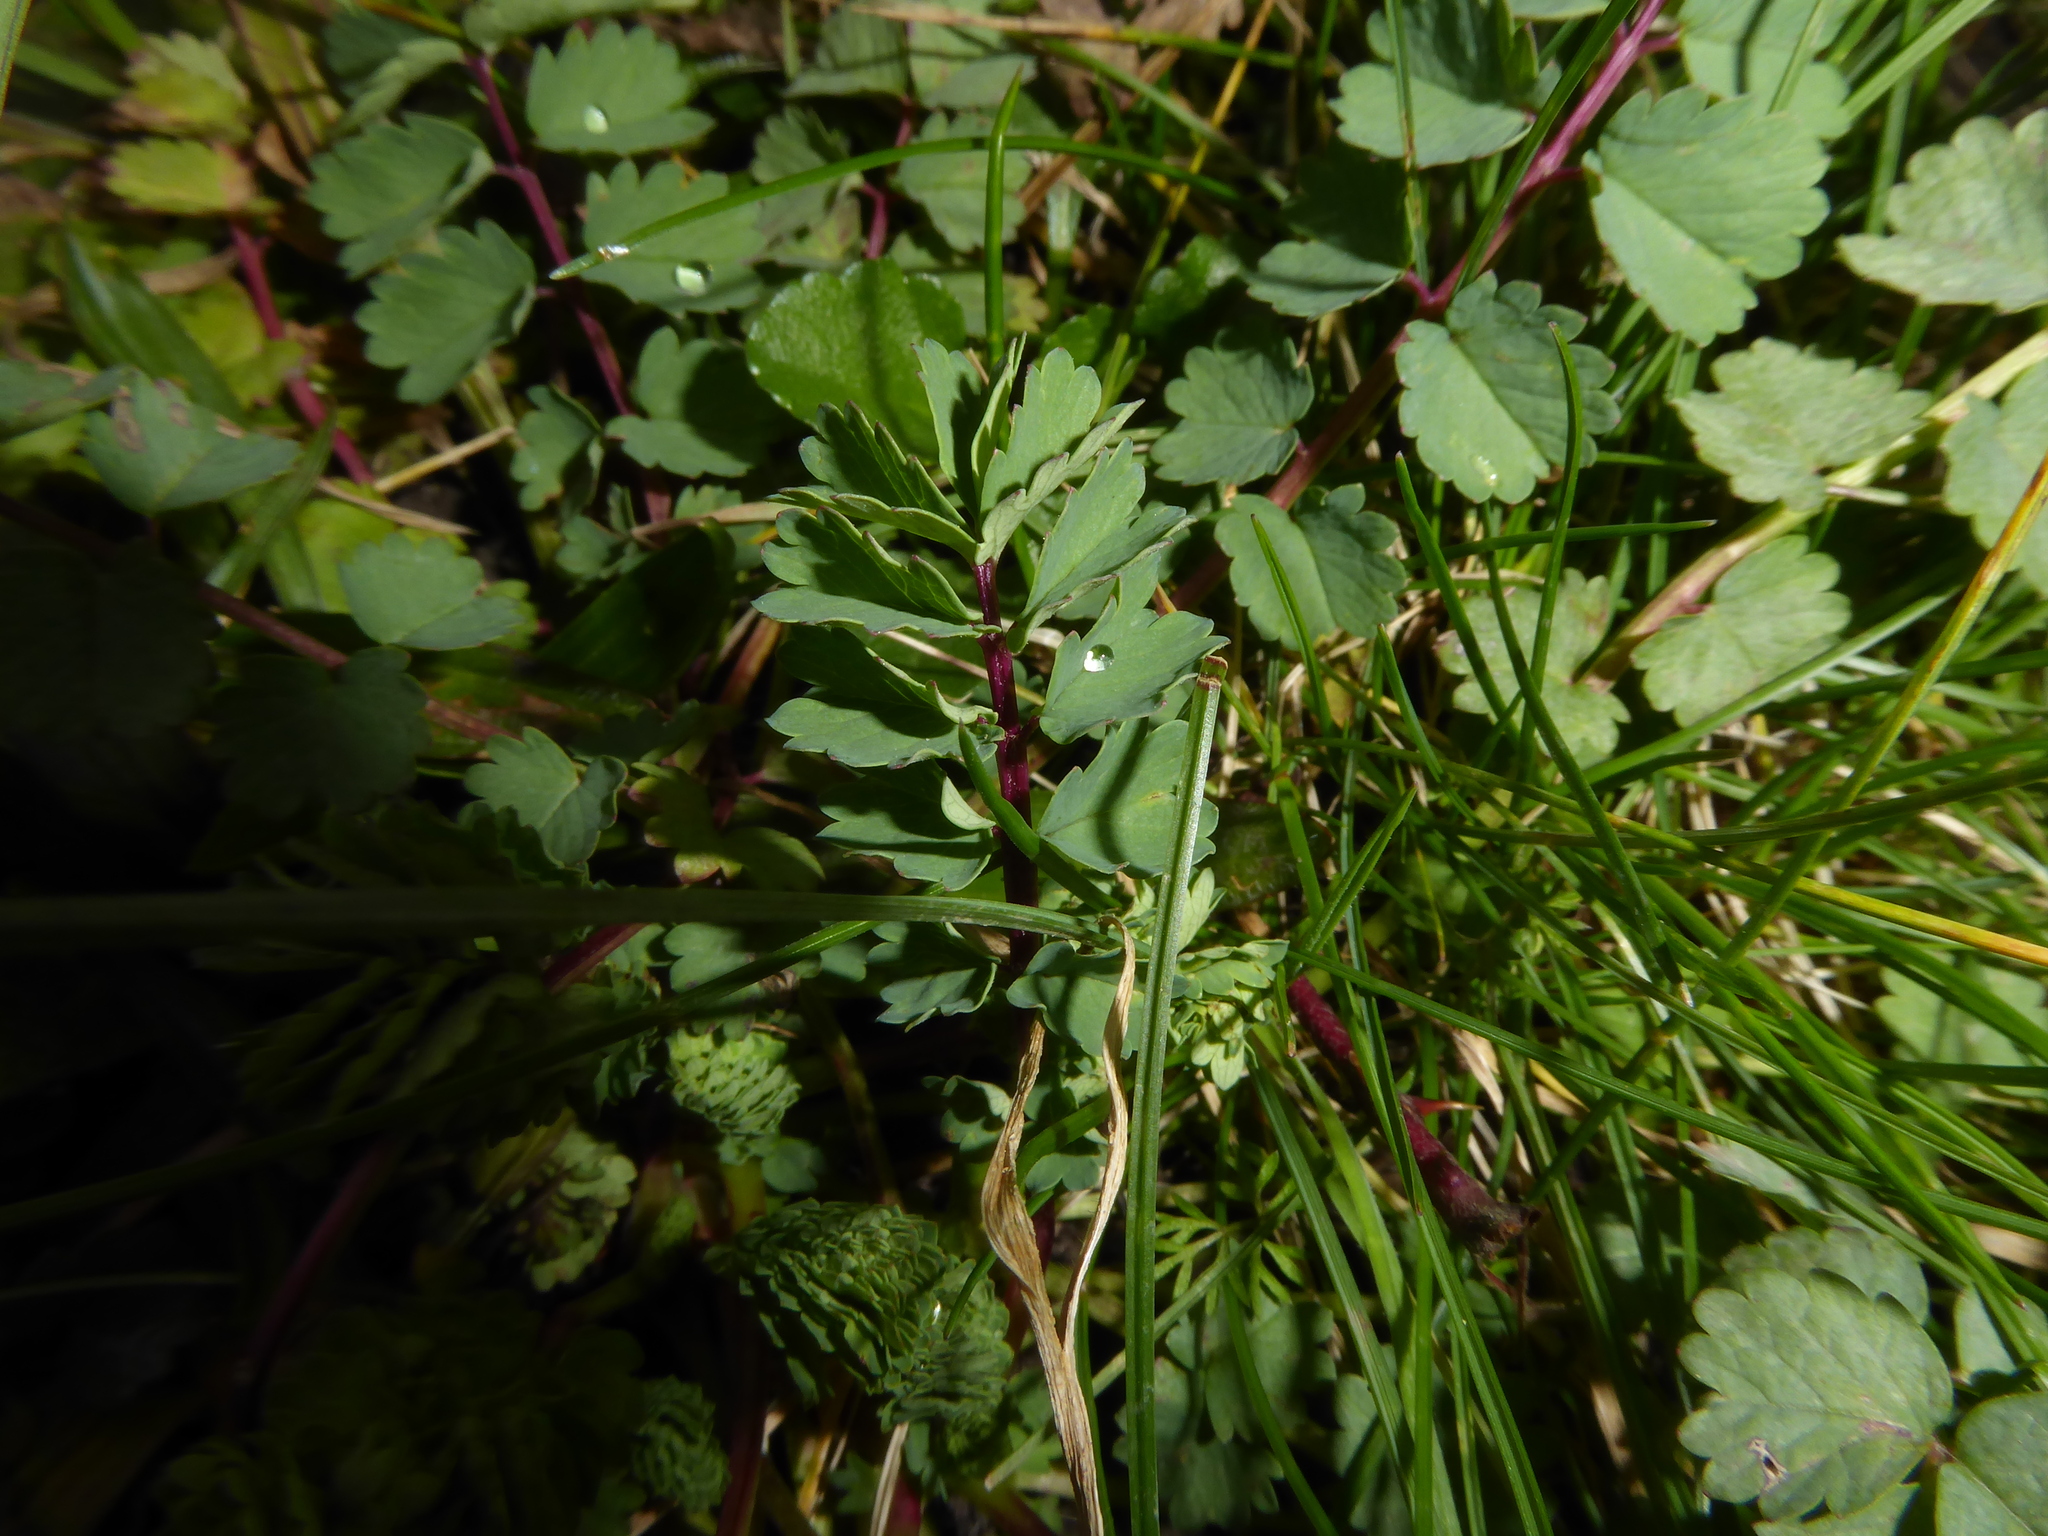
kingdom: Plantae
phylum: Tracheophyta
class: Magnoliopsida
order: Rosales
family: Rosaceae
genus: Poterium
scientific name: Poterium sanguisorba
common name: Salad burnet
